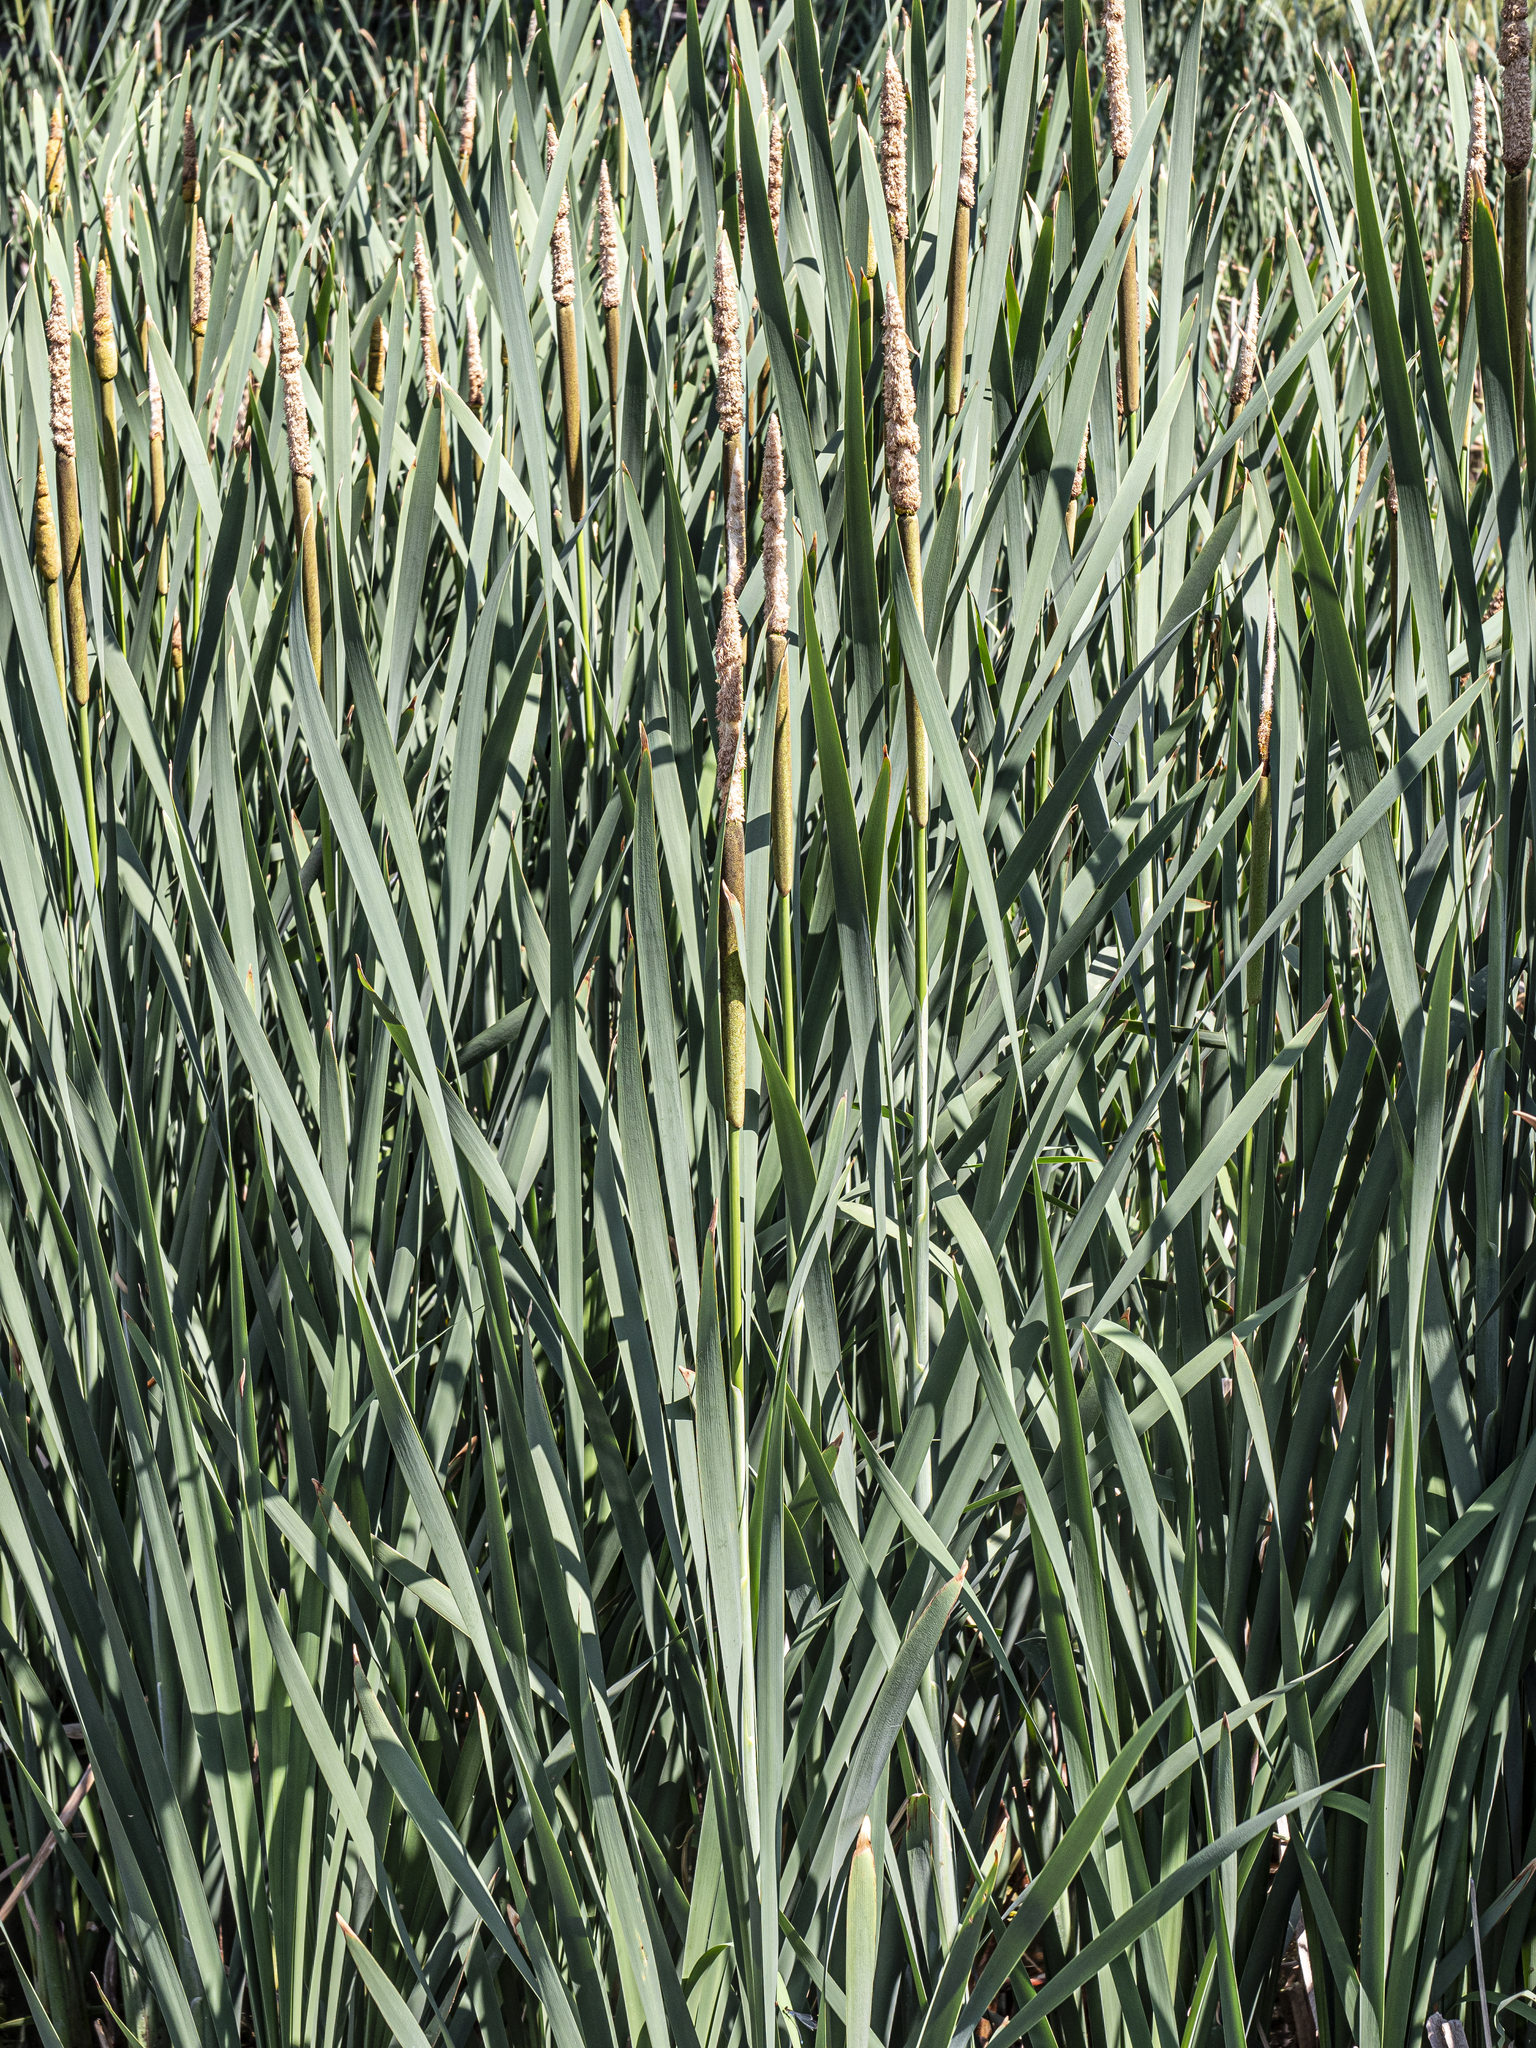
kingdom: Plantae
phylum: Tracheophyta
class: Liliopsida
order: Poales
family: Typhaceae
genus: Typha
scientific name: Typha latifolia
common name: Broadleaf cattail
